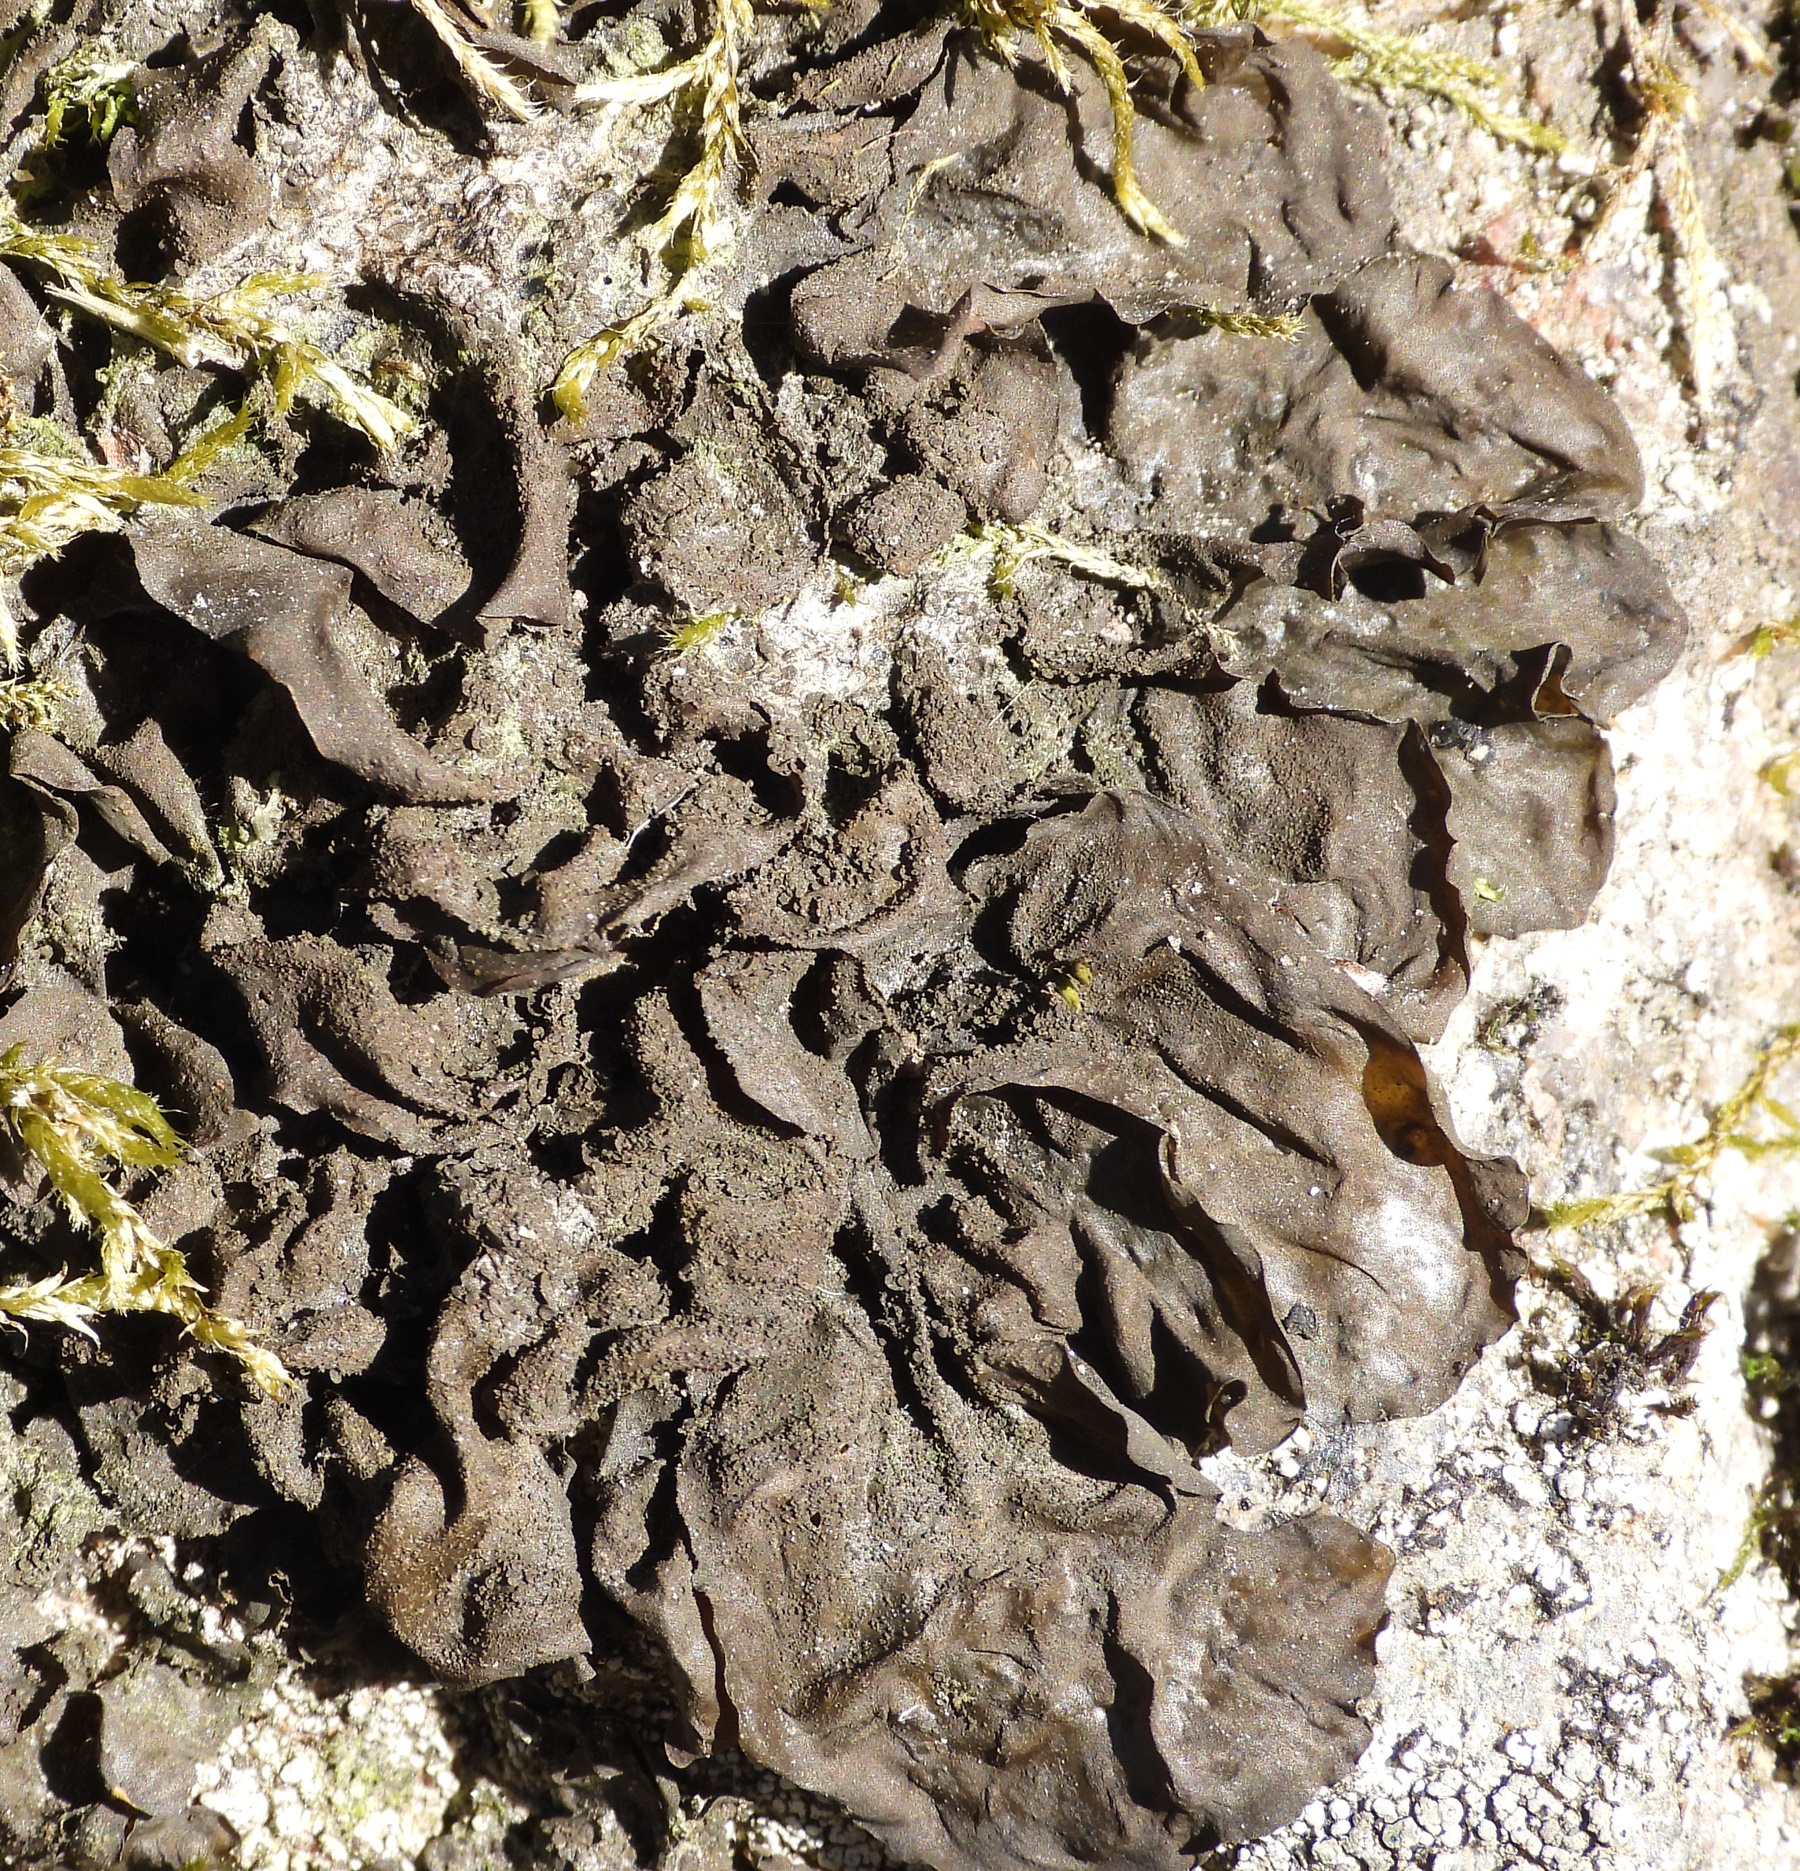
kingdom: Fungi
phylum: Ascomycota
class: Lecanoromycetes
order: Peltigerales
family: Collemataceae
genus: Collema
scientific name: Collema flaccidum
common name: Butterfly jelly lichen
